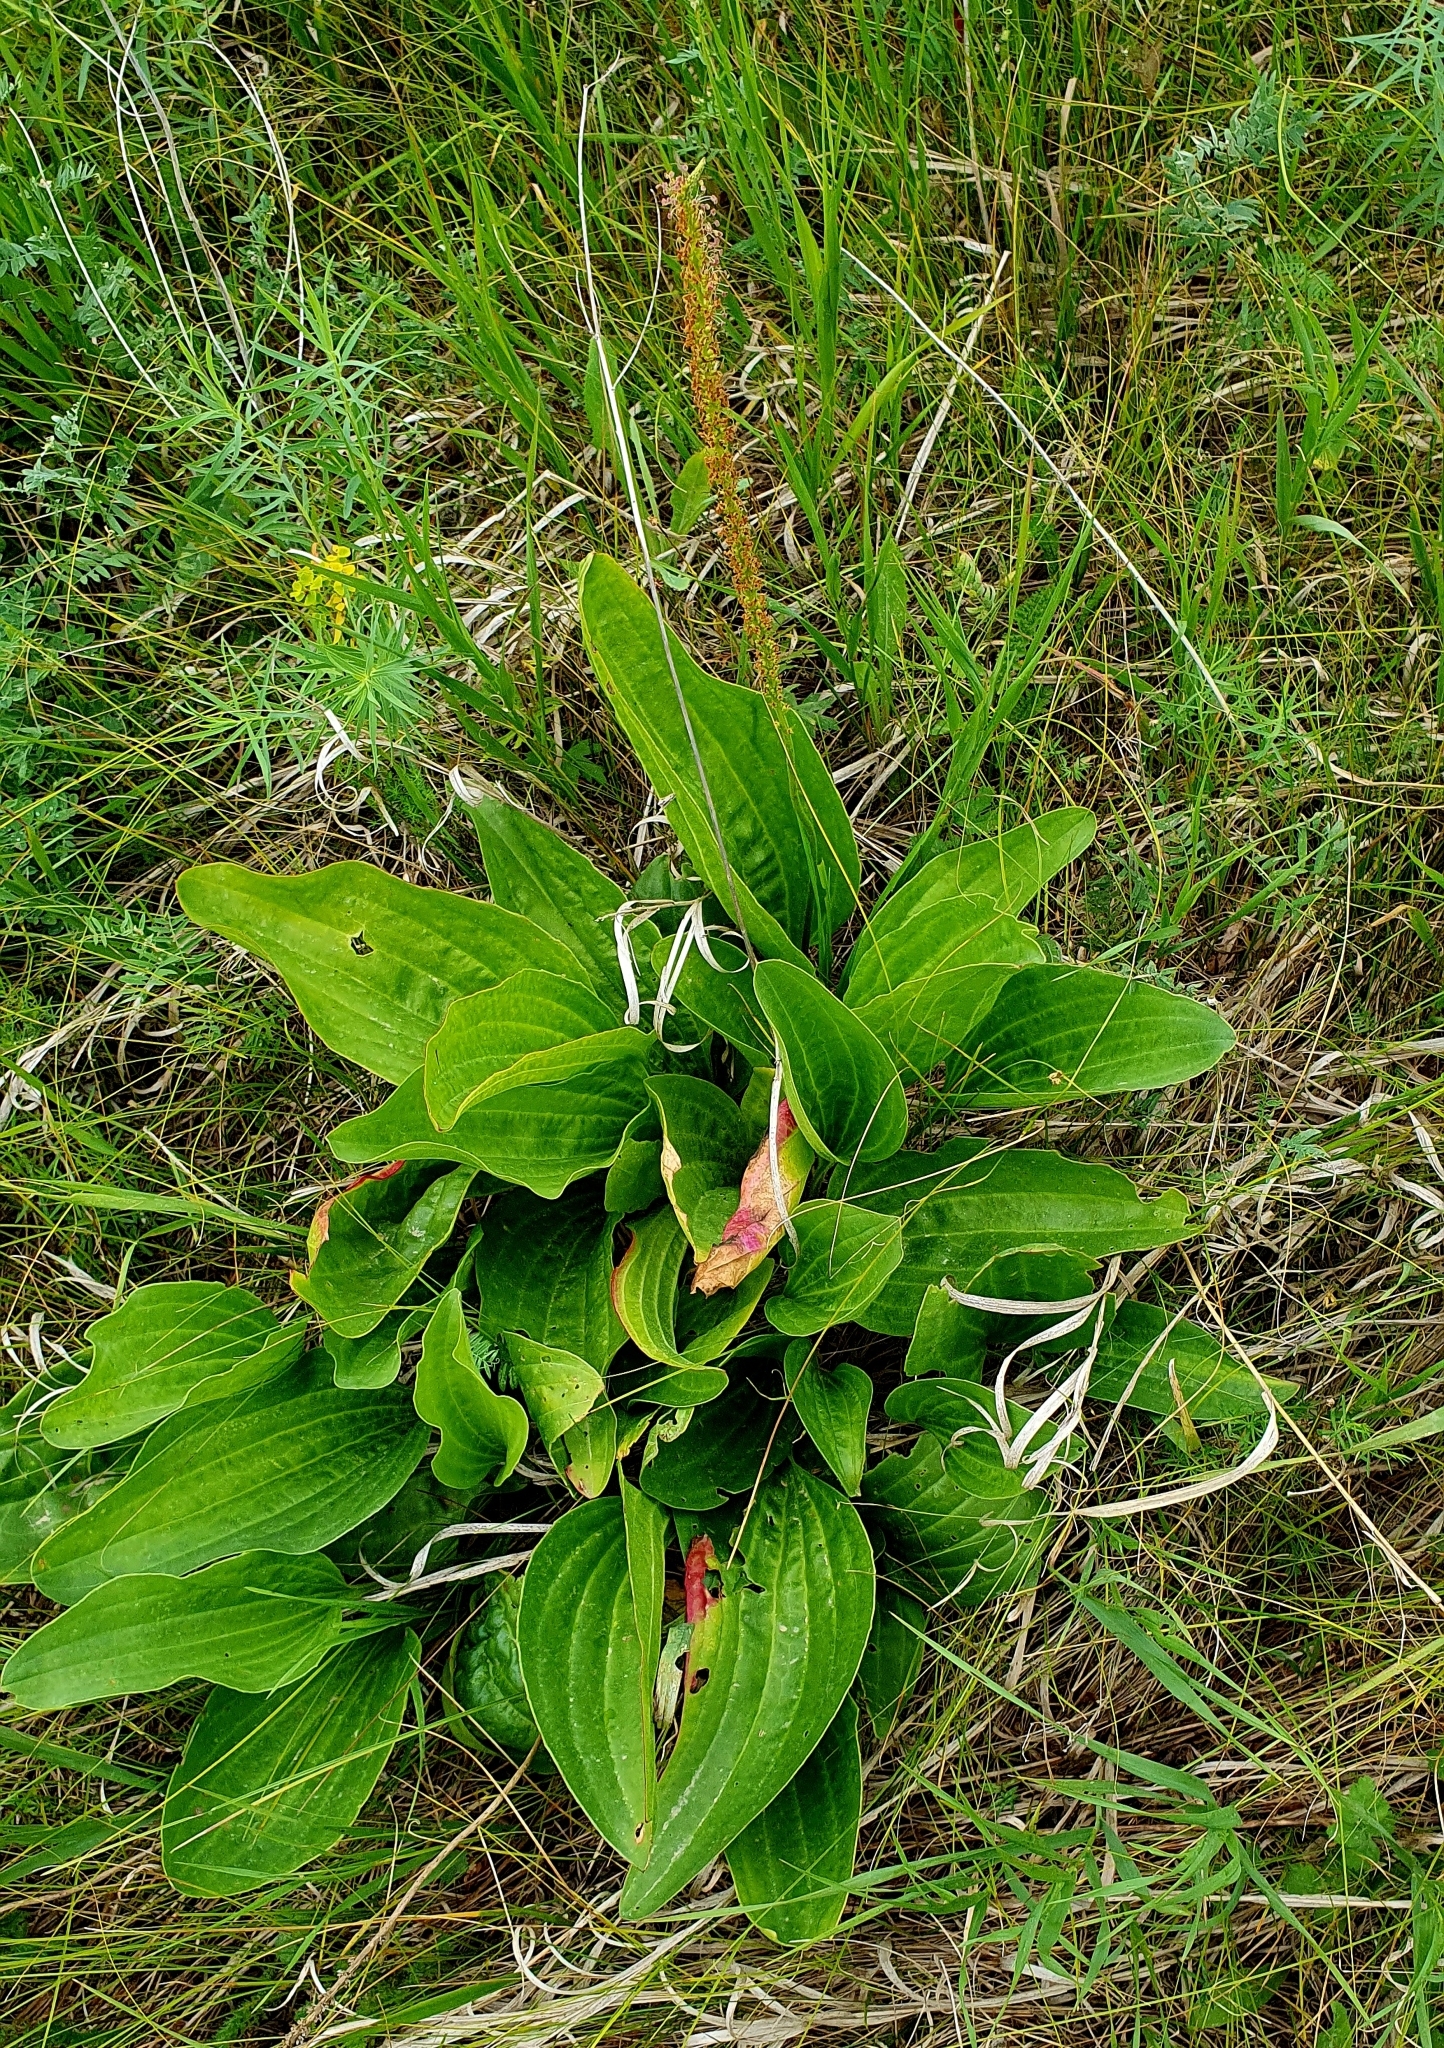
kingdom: Plantae
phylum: Tracheophyta
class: Magnoliopsida
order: Lamiales
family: Plantaginaceae
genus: Plantago
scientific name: Plantago cornuti
